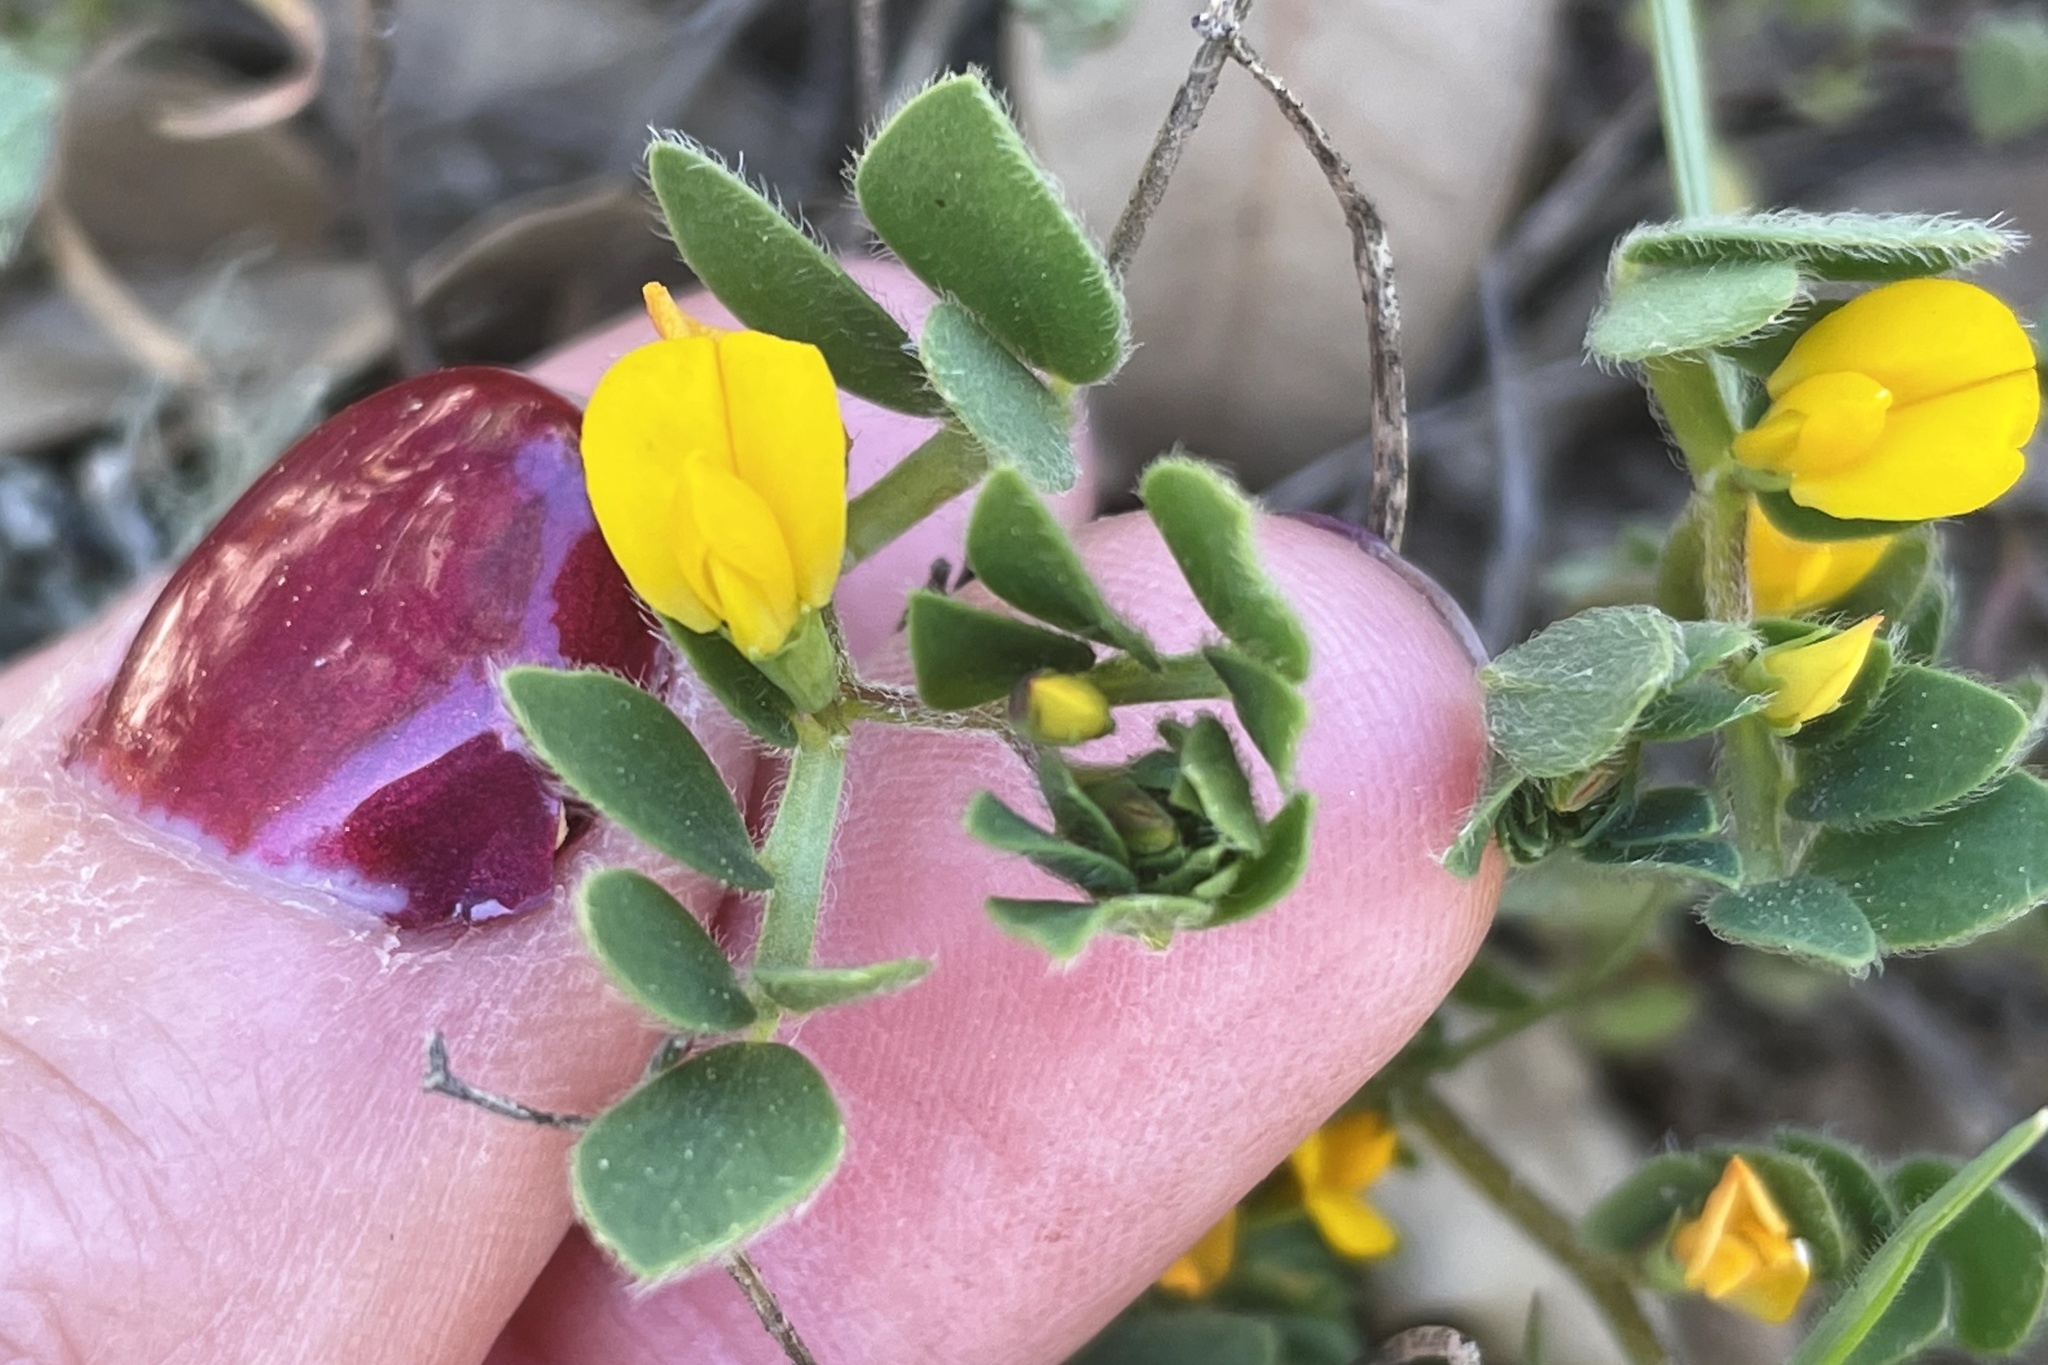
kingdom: Plantae
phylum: Tracheophyta
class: Magnoliopsida
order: Fabales
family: Fabaceae
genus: Acmispon
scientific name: Acmispon wrangelianus
